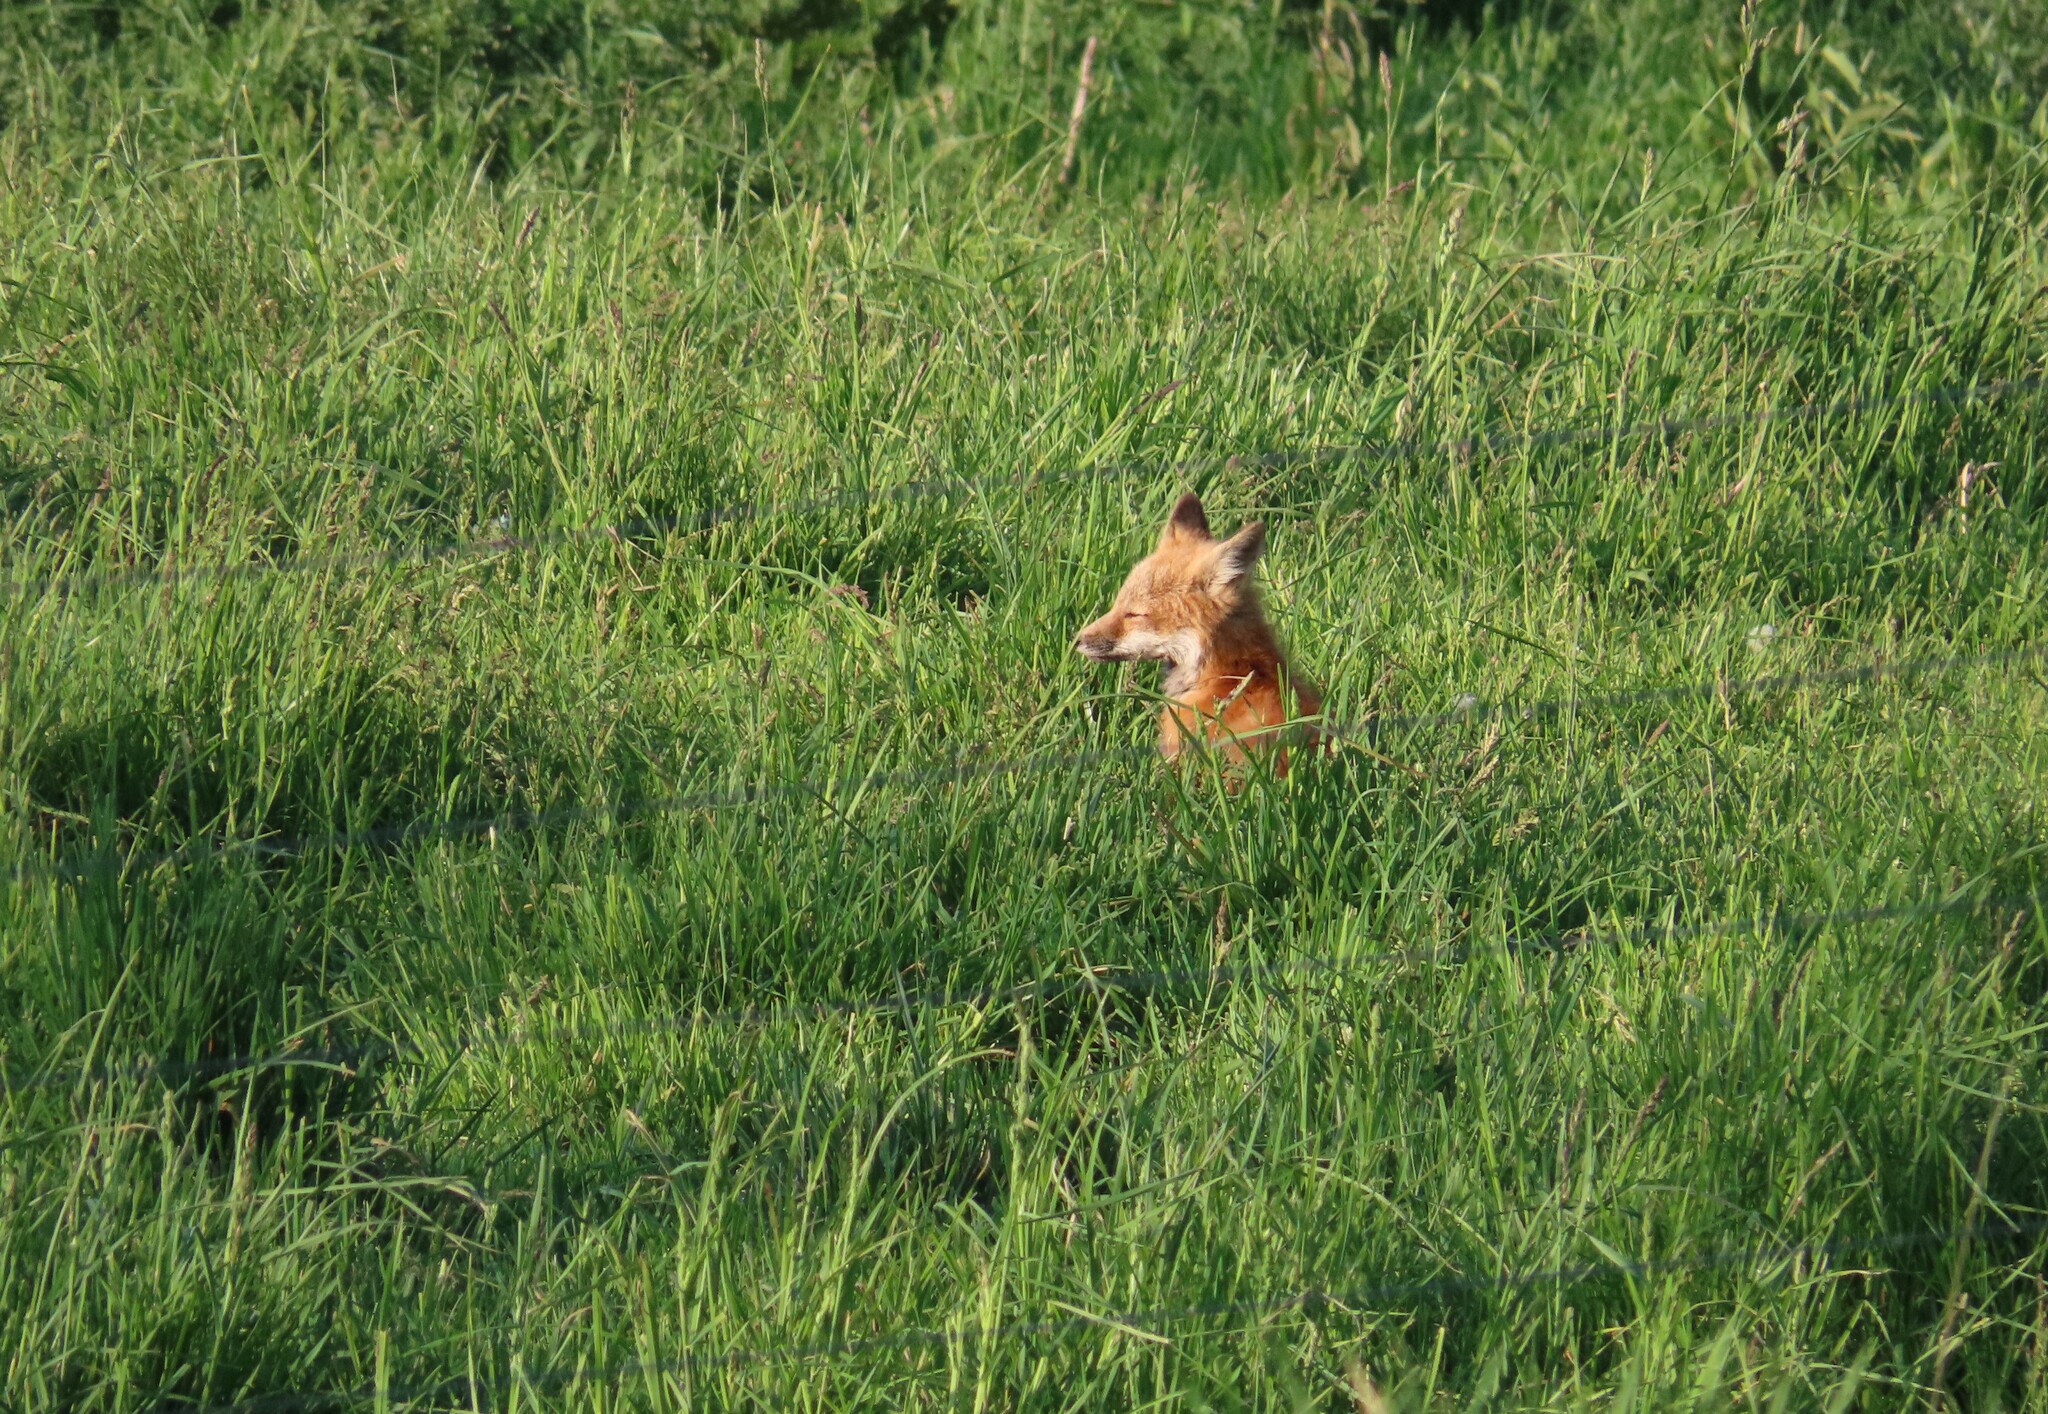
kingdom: Animalia
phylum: Chordata
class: Mammalia
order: Carnivora
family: Canidae
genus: Vulpes
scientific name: Vulpes vulpes
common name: Red fox
